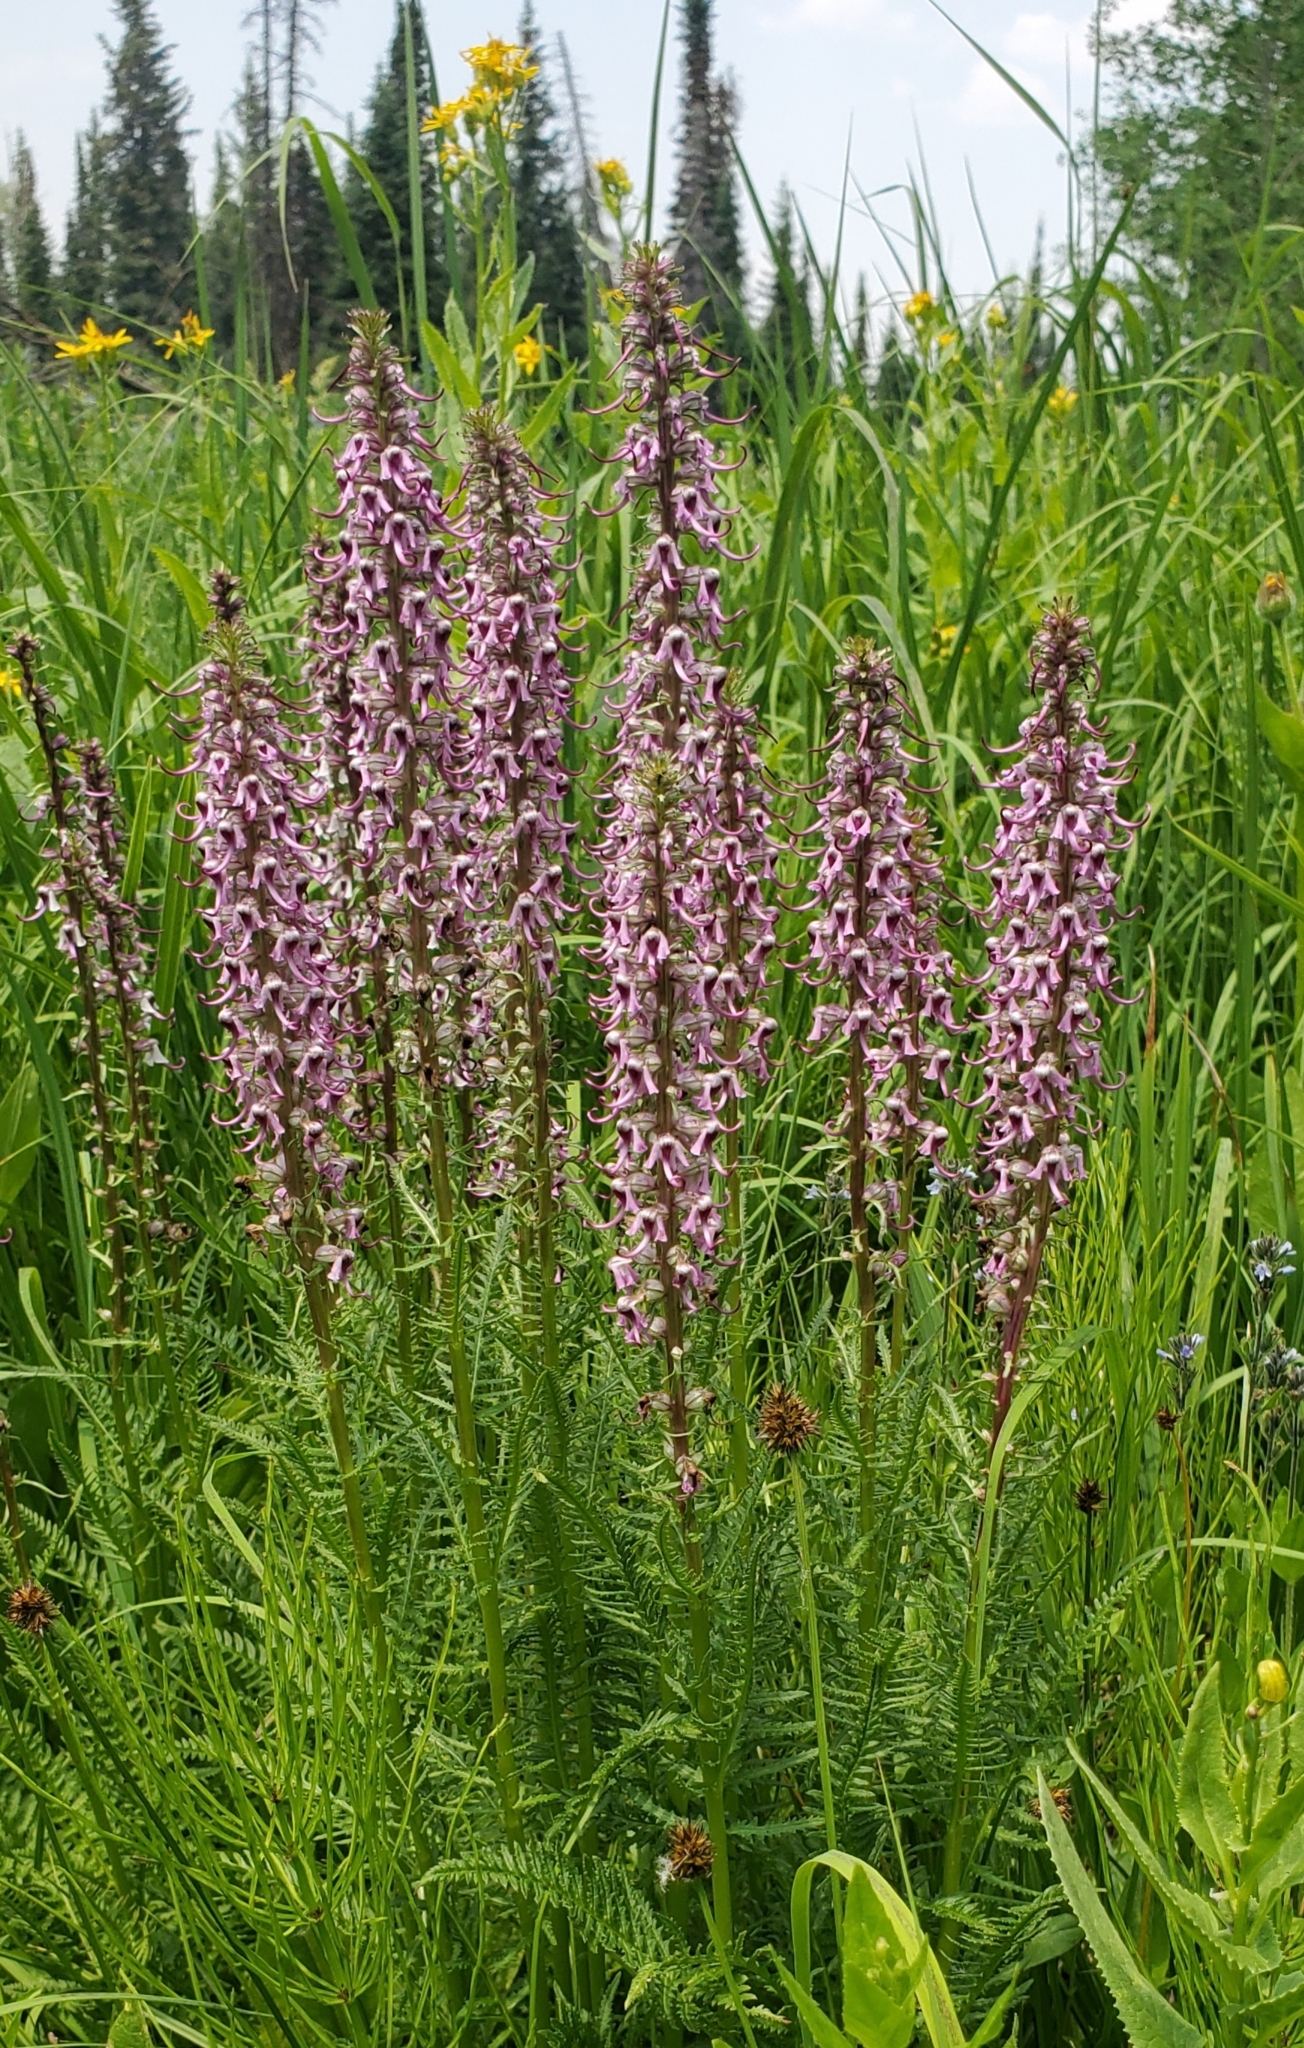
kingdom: Plantae
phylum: Tracheophyta
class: Magnoliopsida
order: Lamiales
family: Orobanchaceae
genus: Pedicularis
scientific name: Pedicularis groenlandica
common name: Elephant's-head
